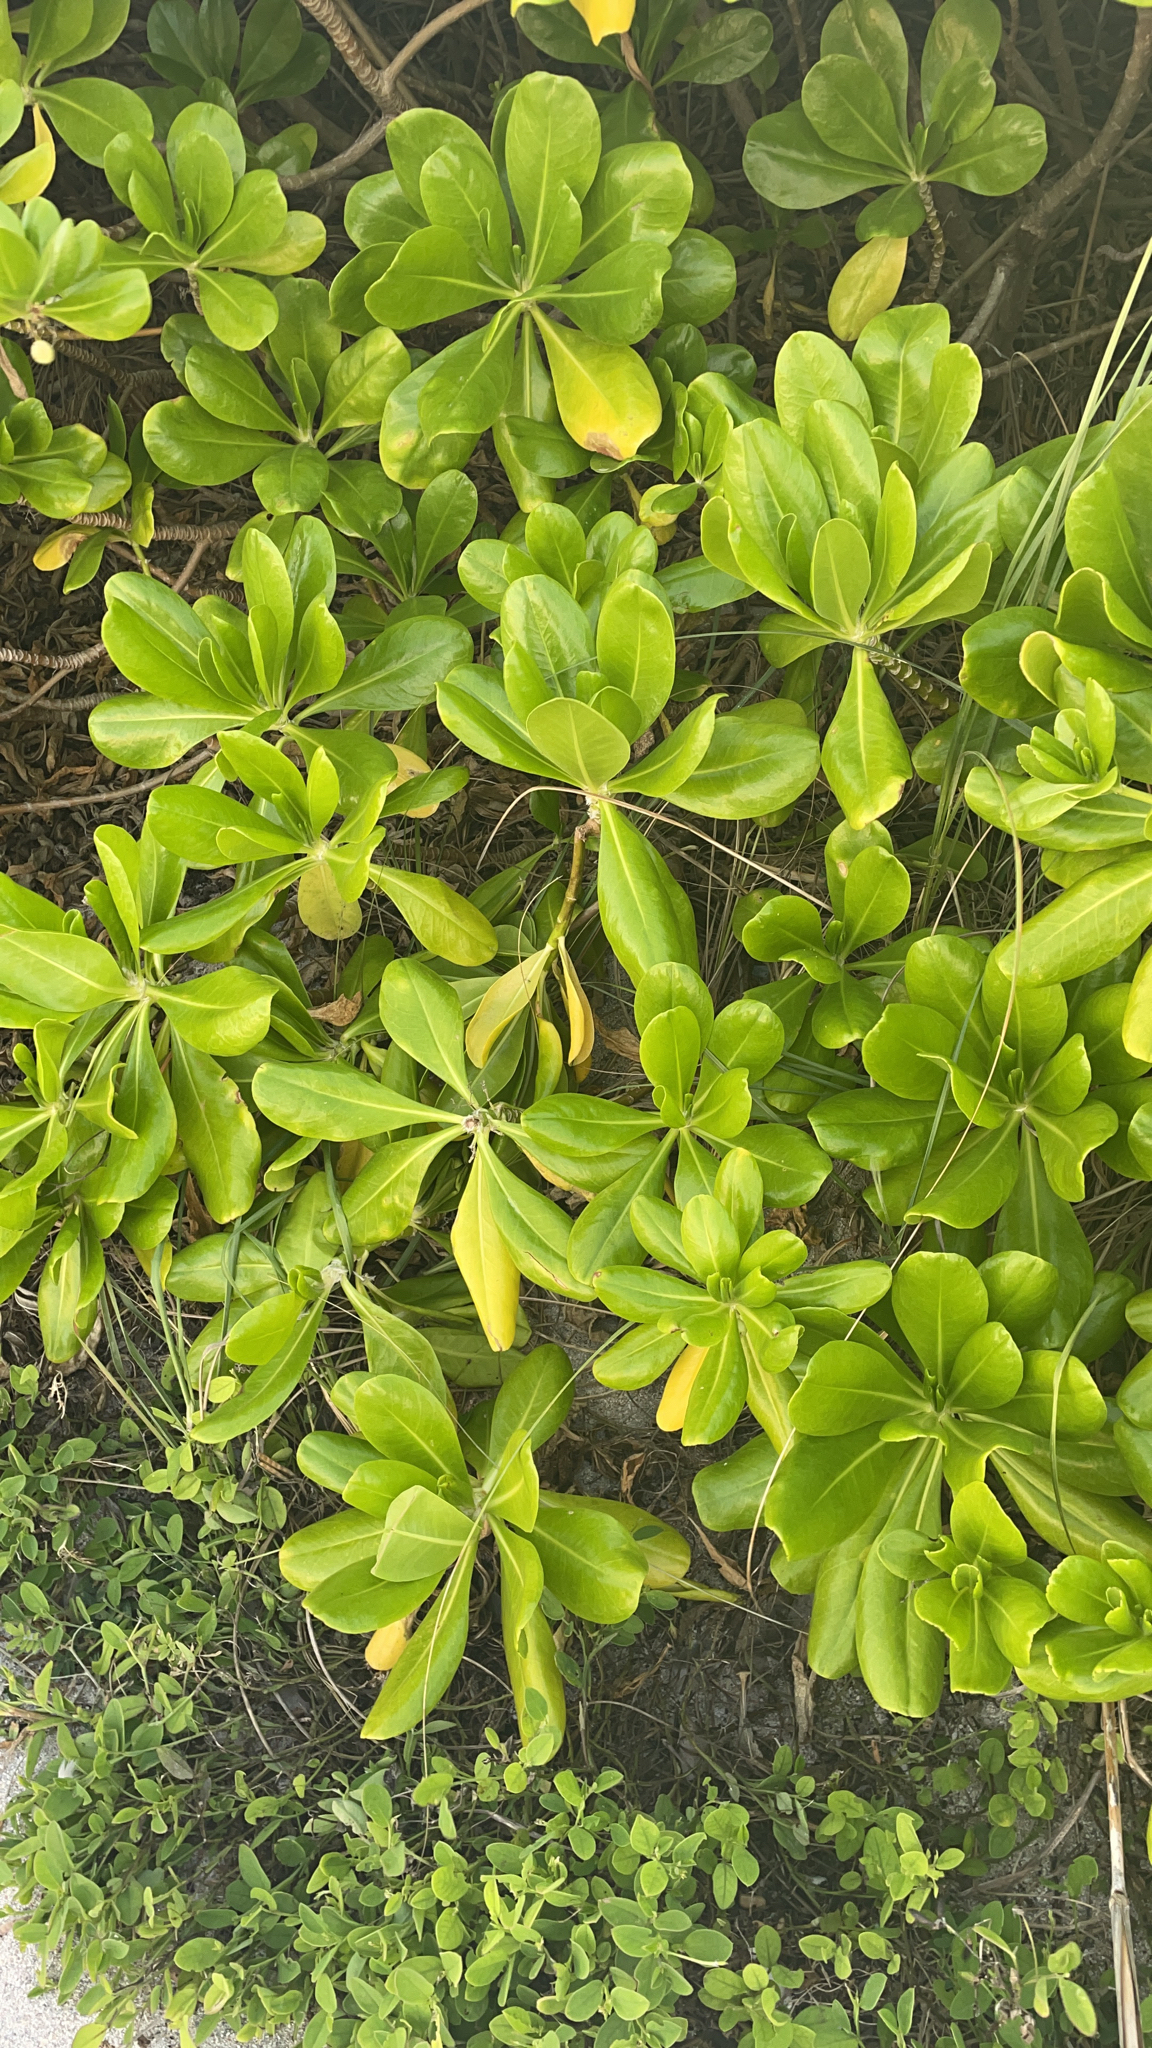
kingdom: Plantae
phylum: Tracheophyta
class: Magnoliopsida
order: Asterales
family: Goodeniaceae
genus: Scaevola
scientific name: Scaevola taccada
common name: Sea lettucetree
